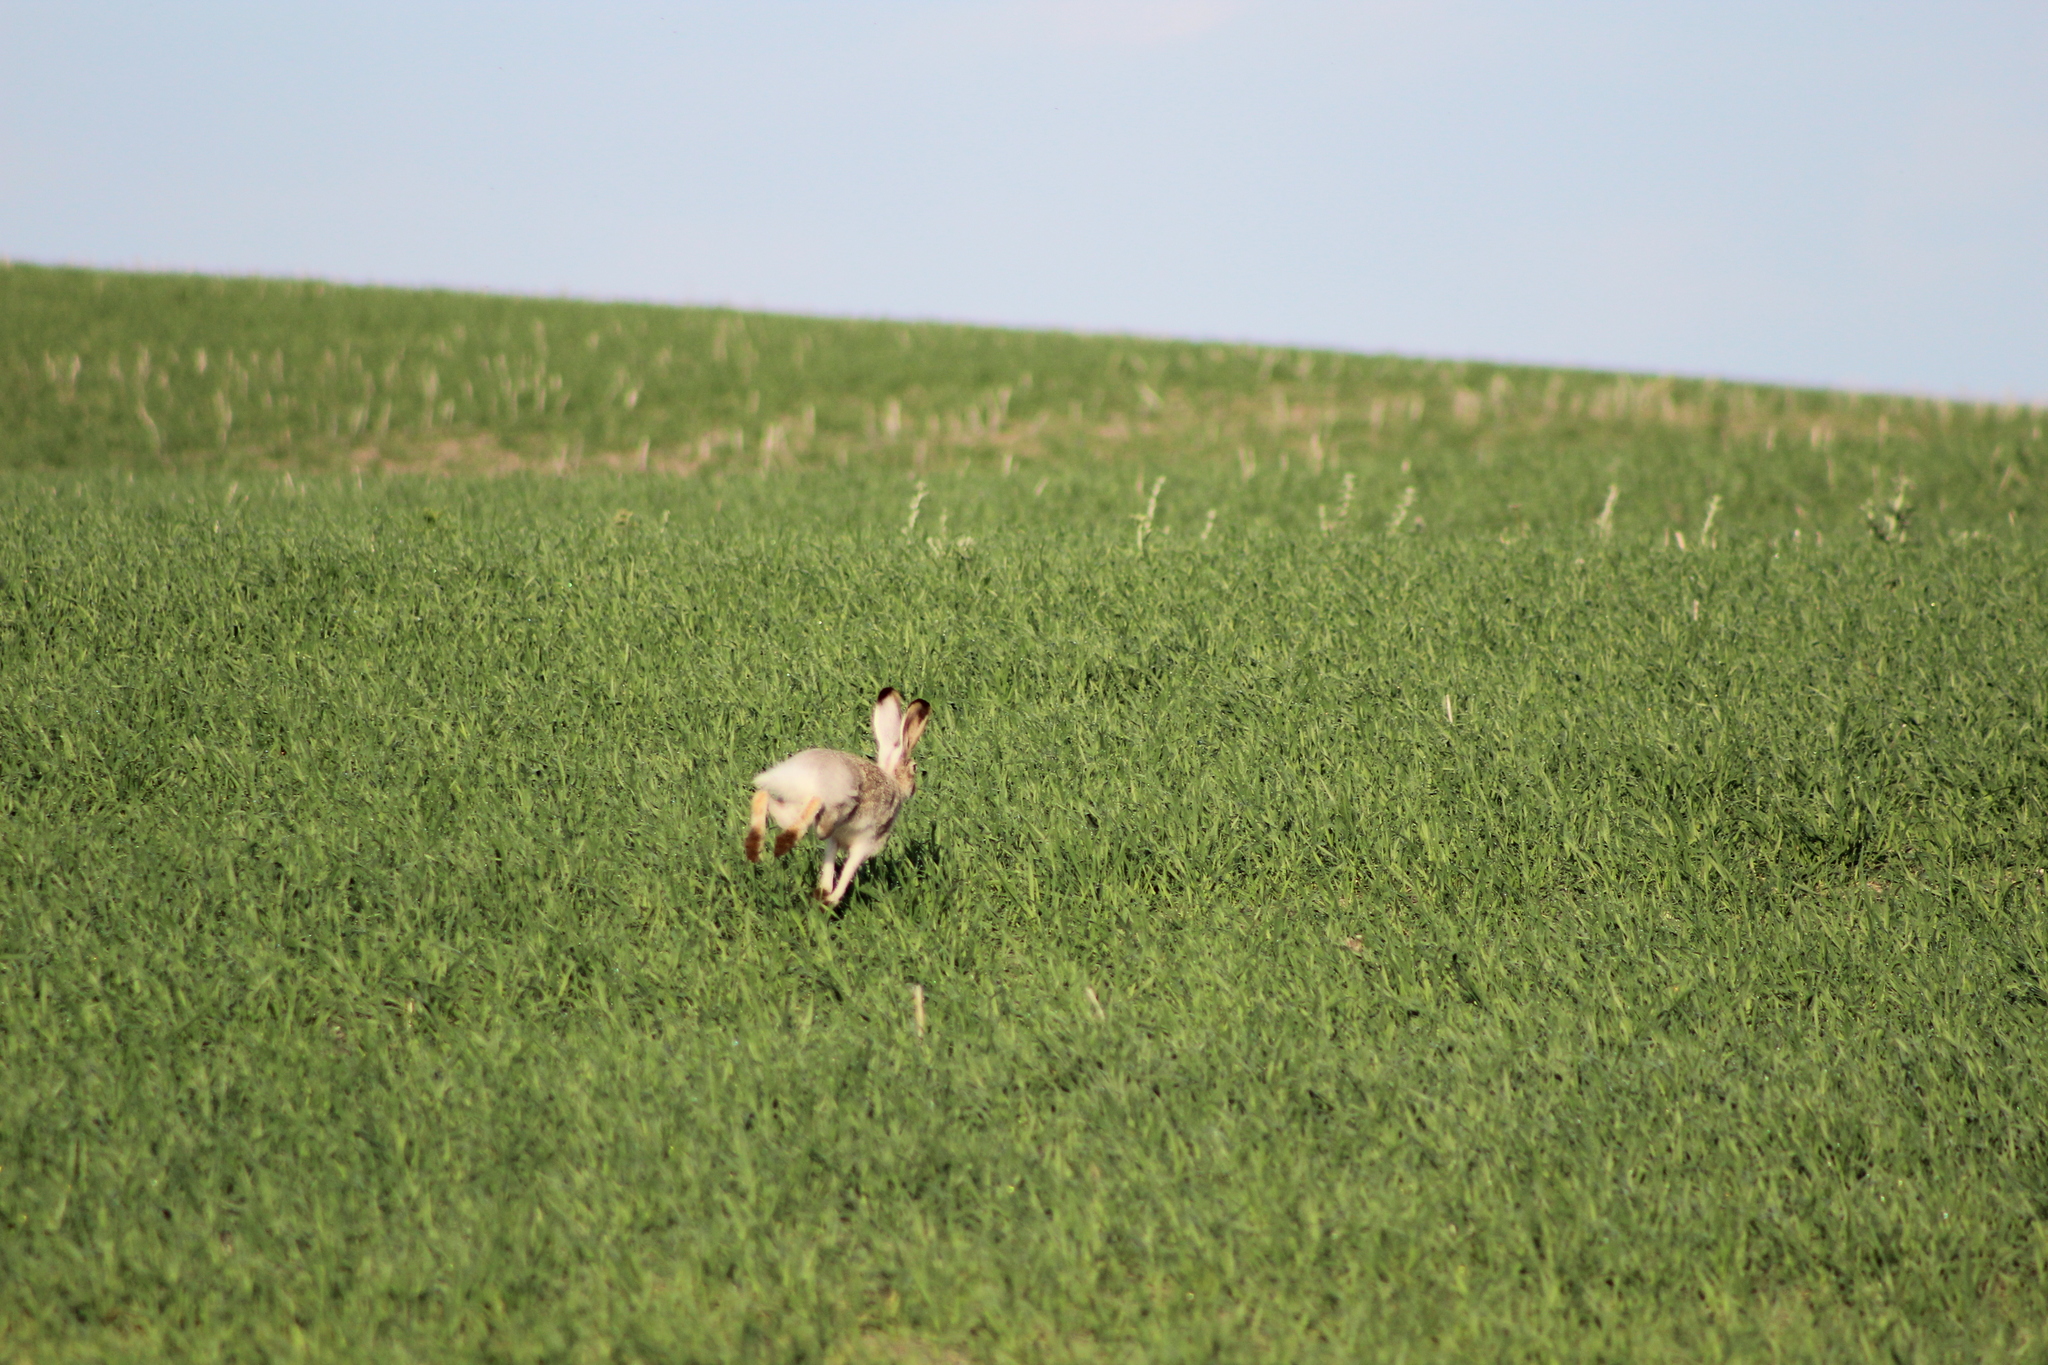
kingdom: Animalia
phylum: Chordata
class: Mammalia
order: Lagomorpha
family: Leporidae
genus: Lepus
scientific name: Lepus townsendii
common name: White-tailed jackrabbit
